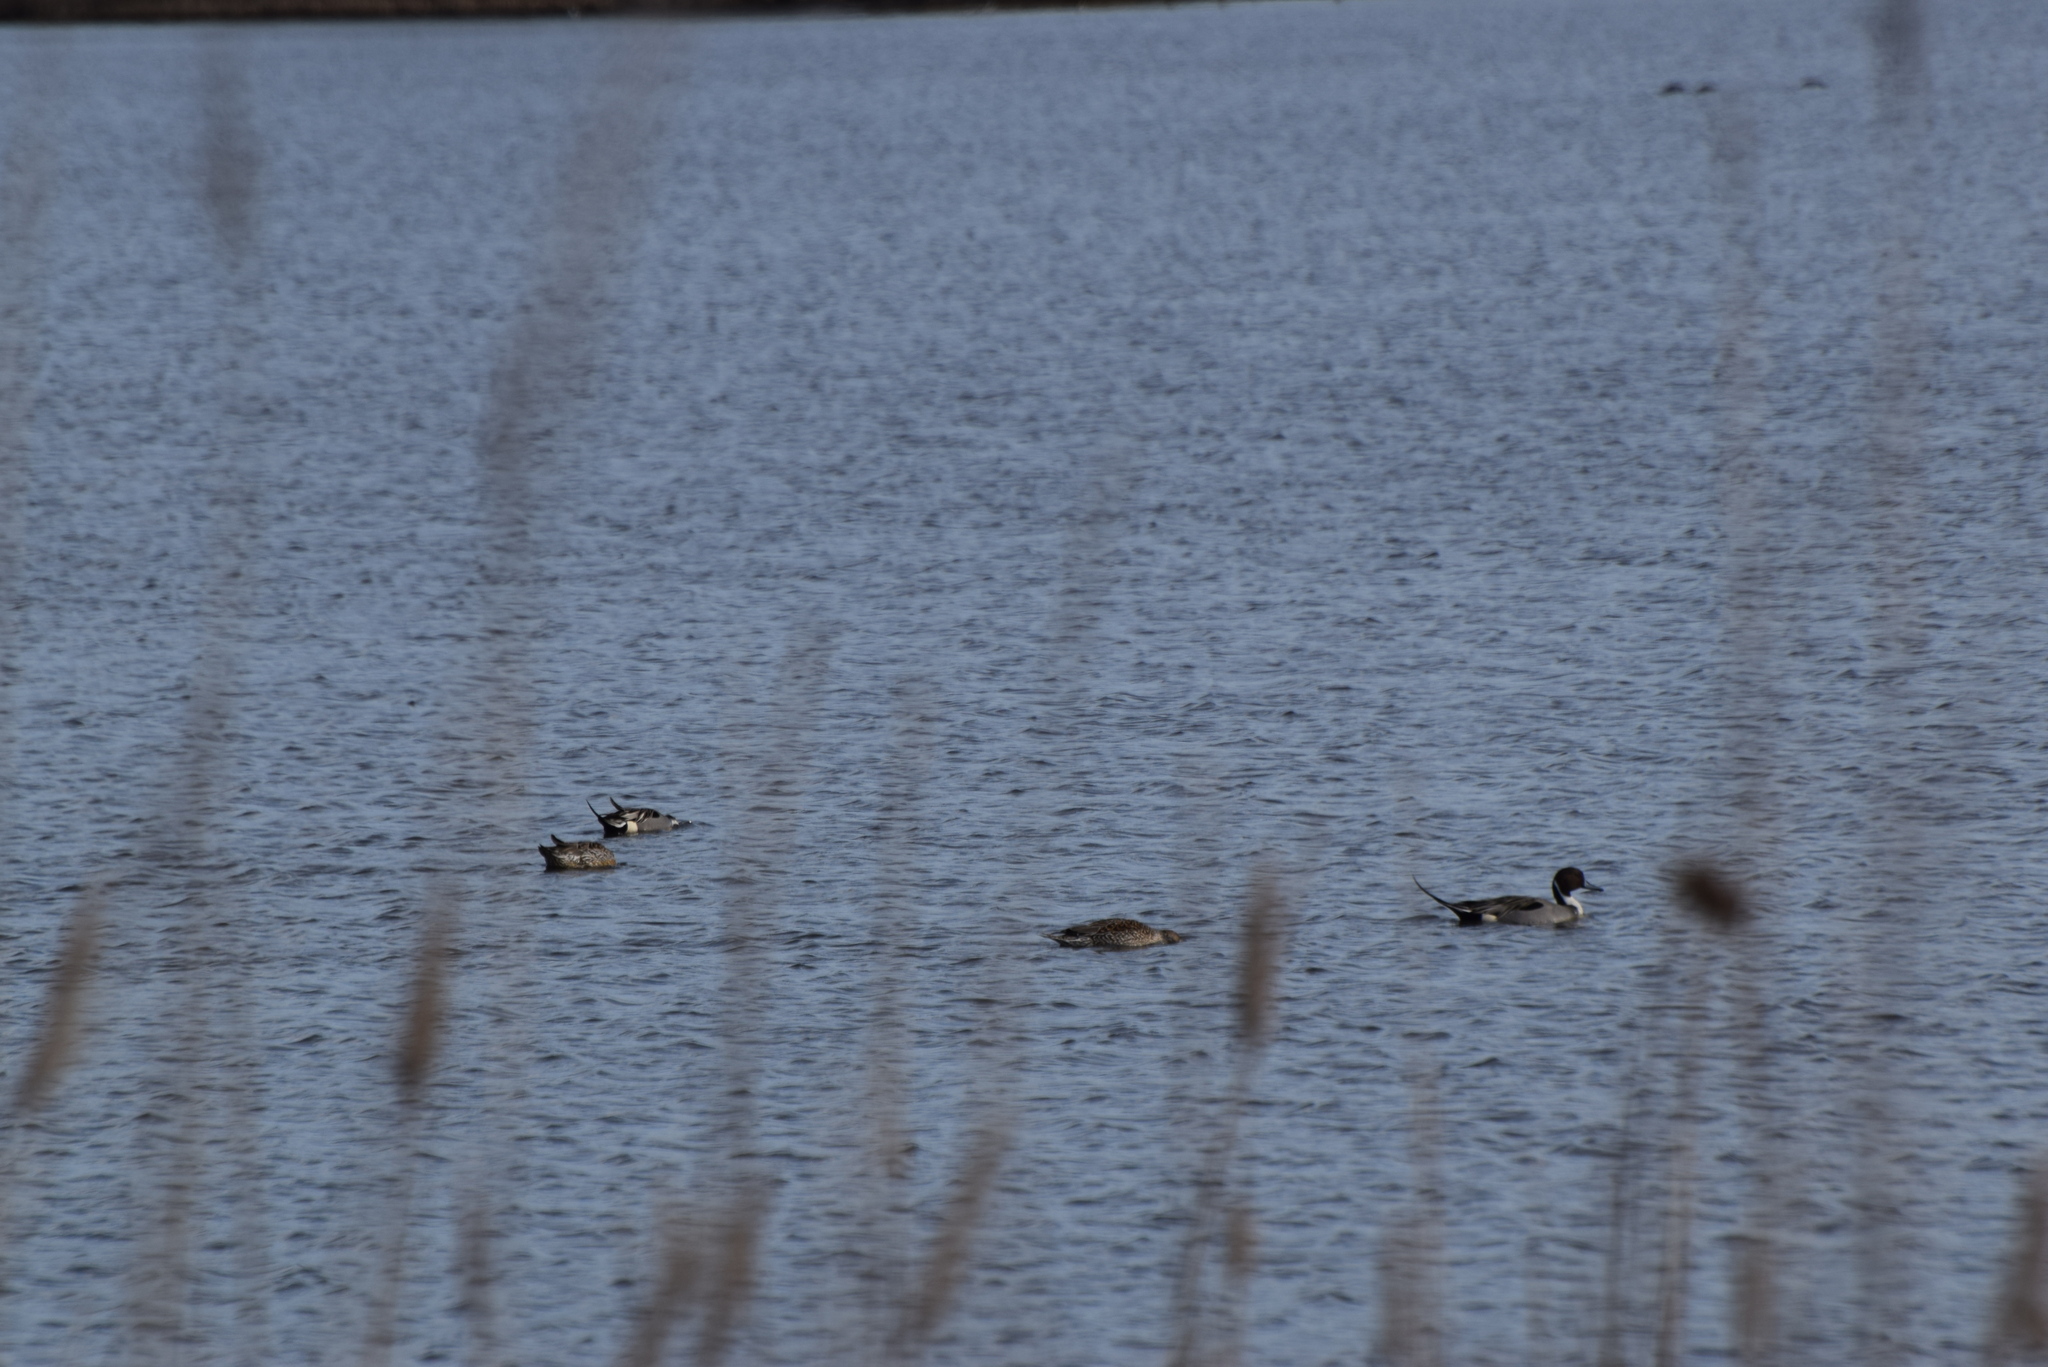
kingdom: Animalia
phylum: Chordata
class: Aves
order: Anseriformes
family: Anatidae
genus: Anas
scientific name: Anas acuta
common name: Northern pintail
